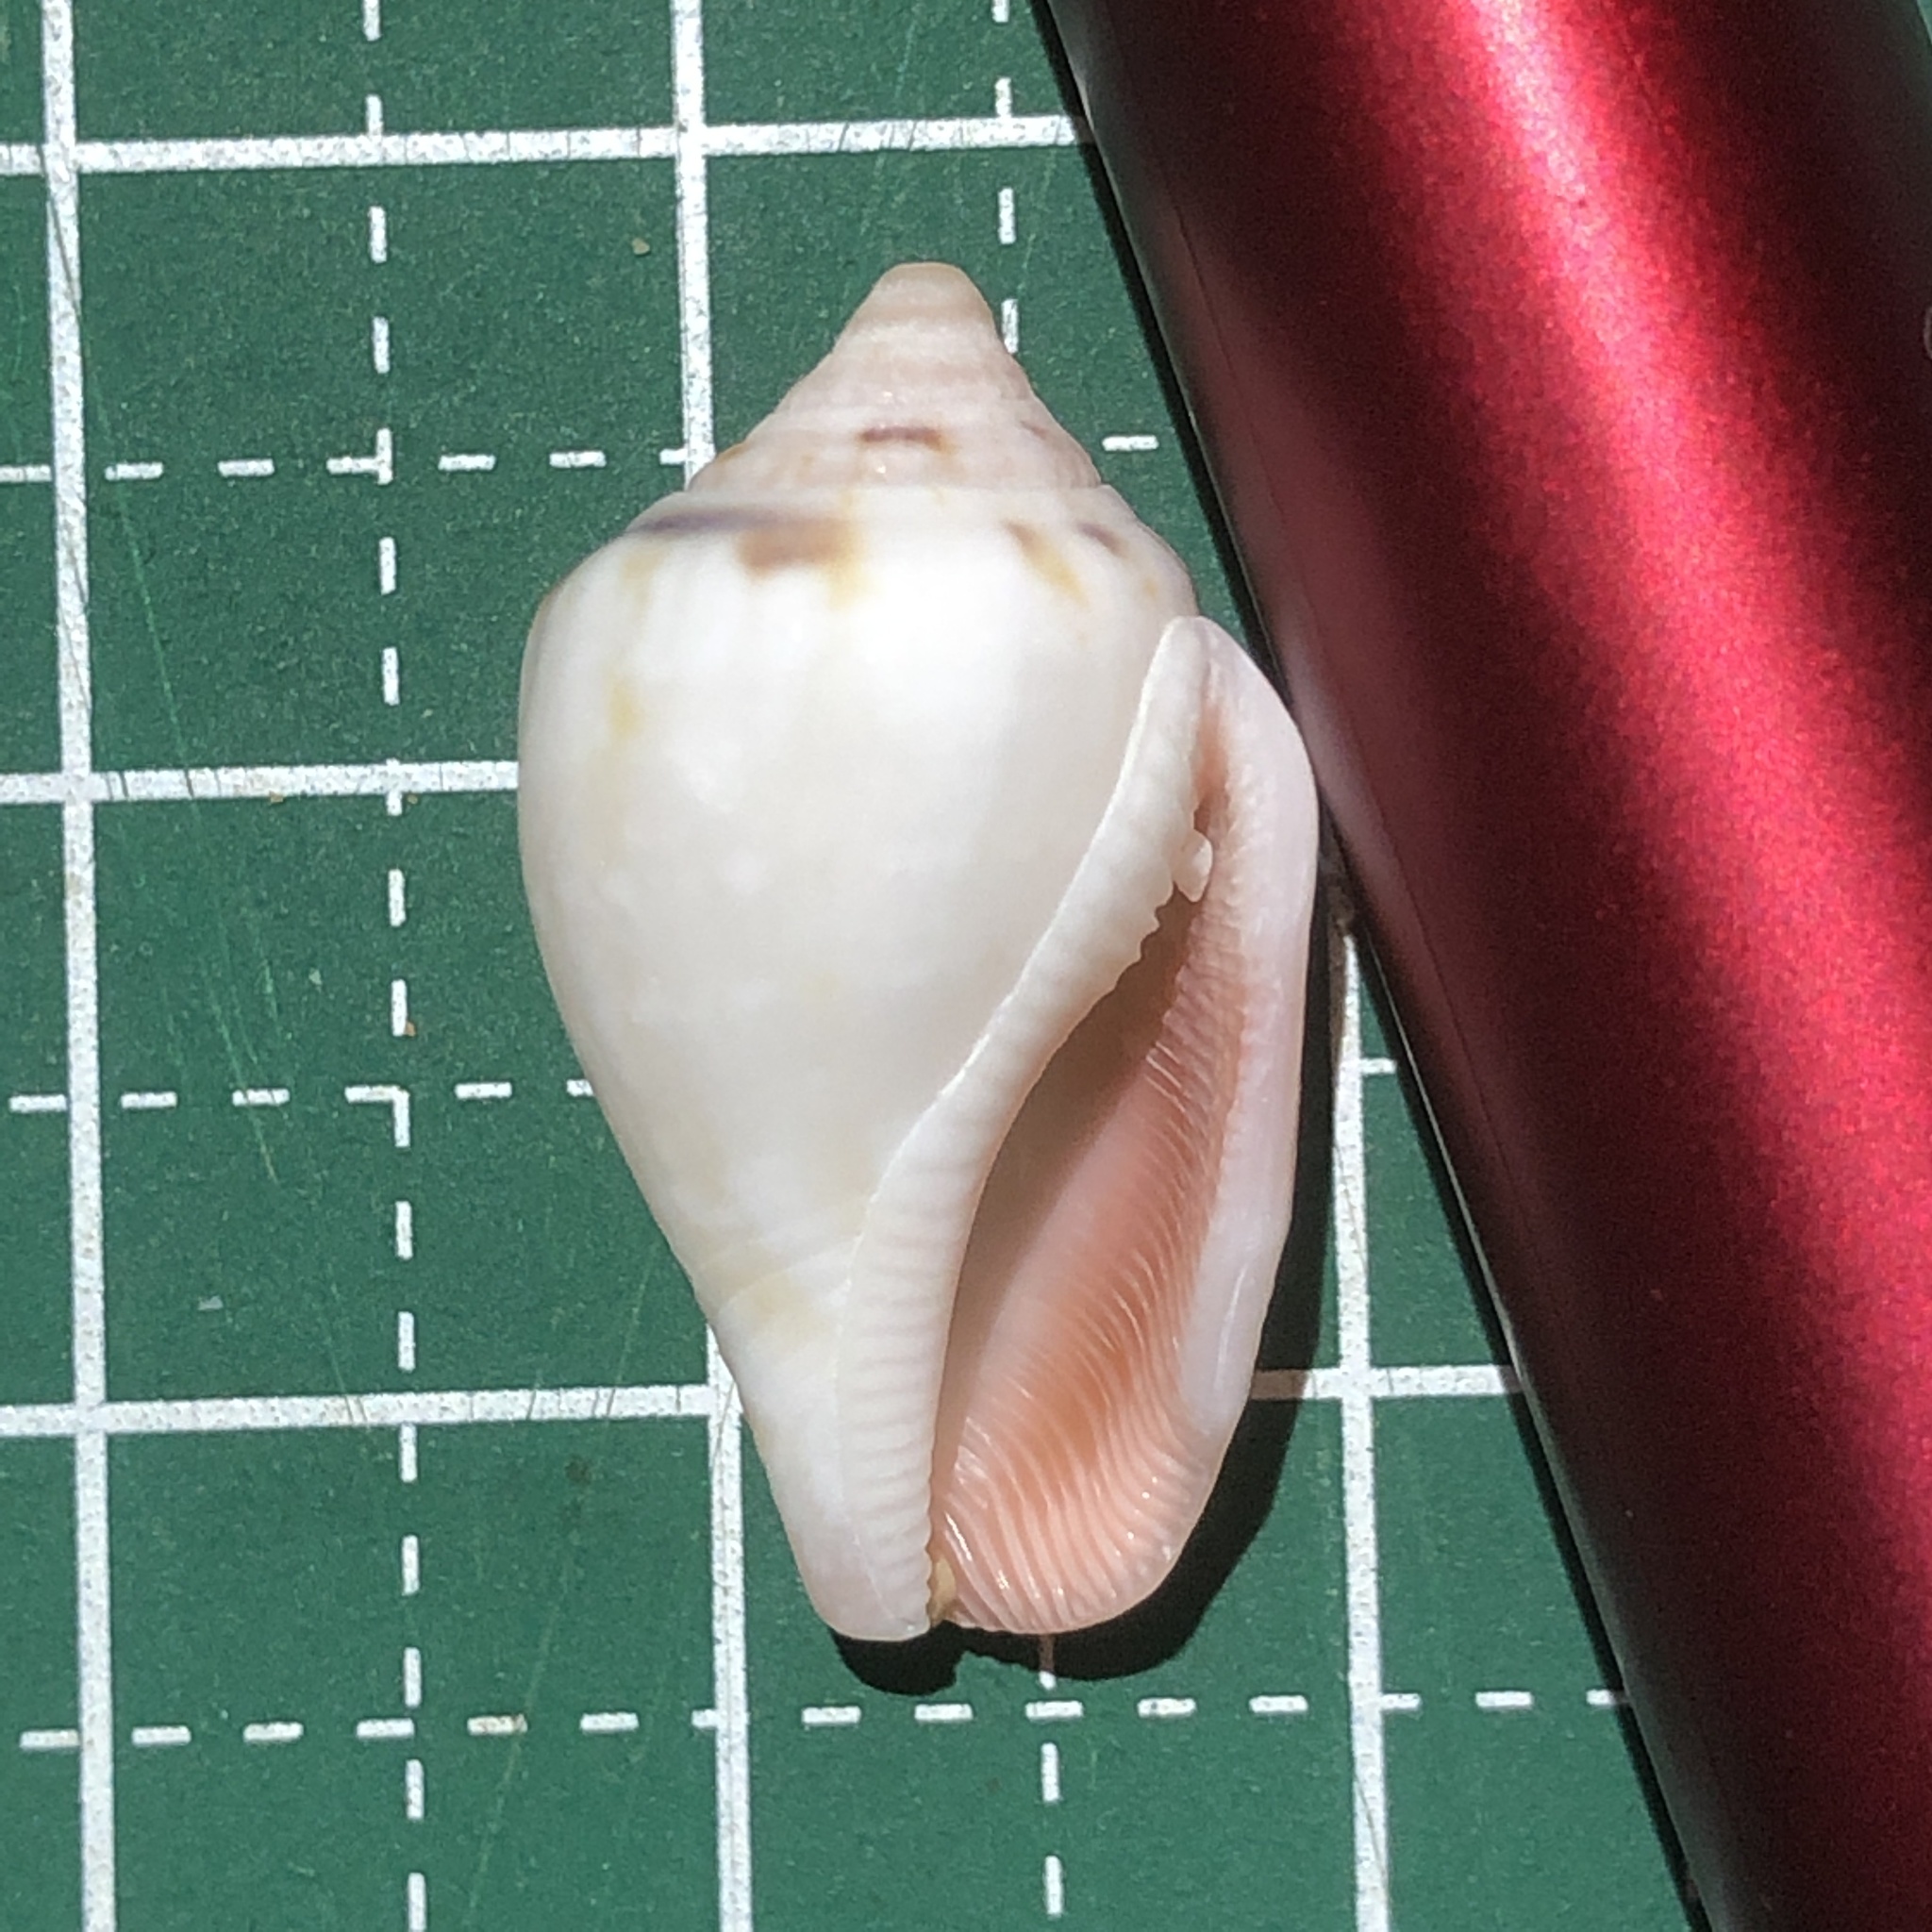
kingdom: Animalia
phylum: Mollusca
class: Gastropoda
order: Littorinimorpha
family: Strombidae
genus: Canarium
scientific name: Canarium mutabile
